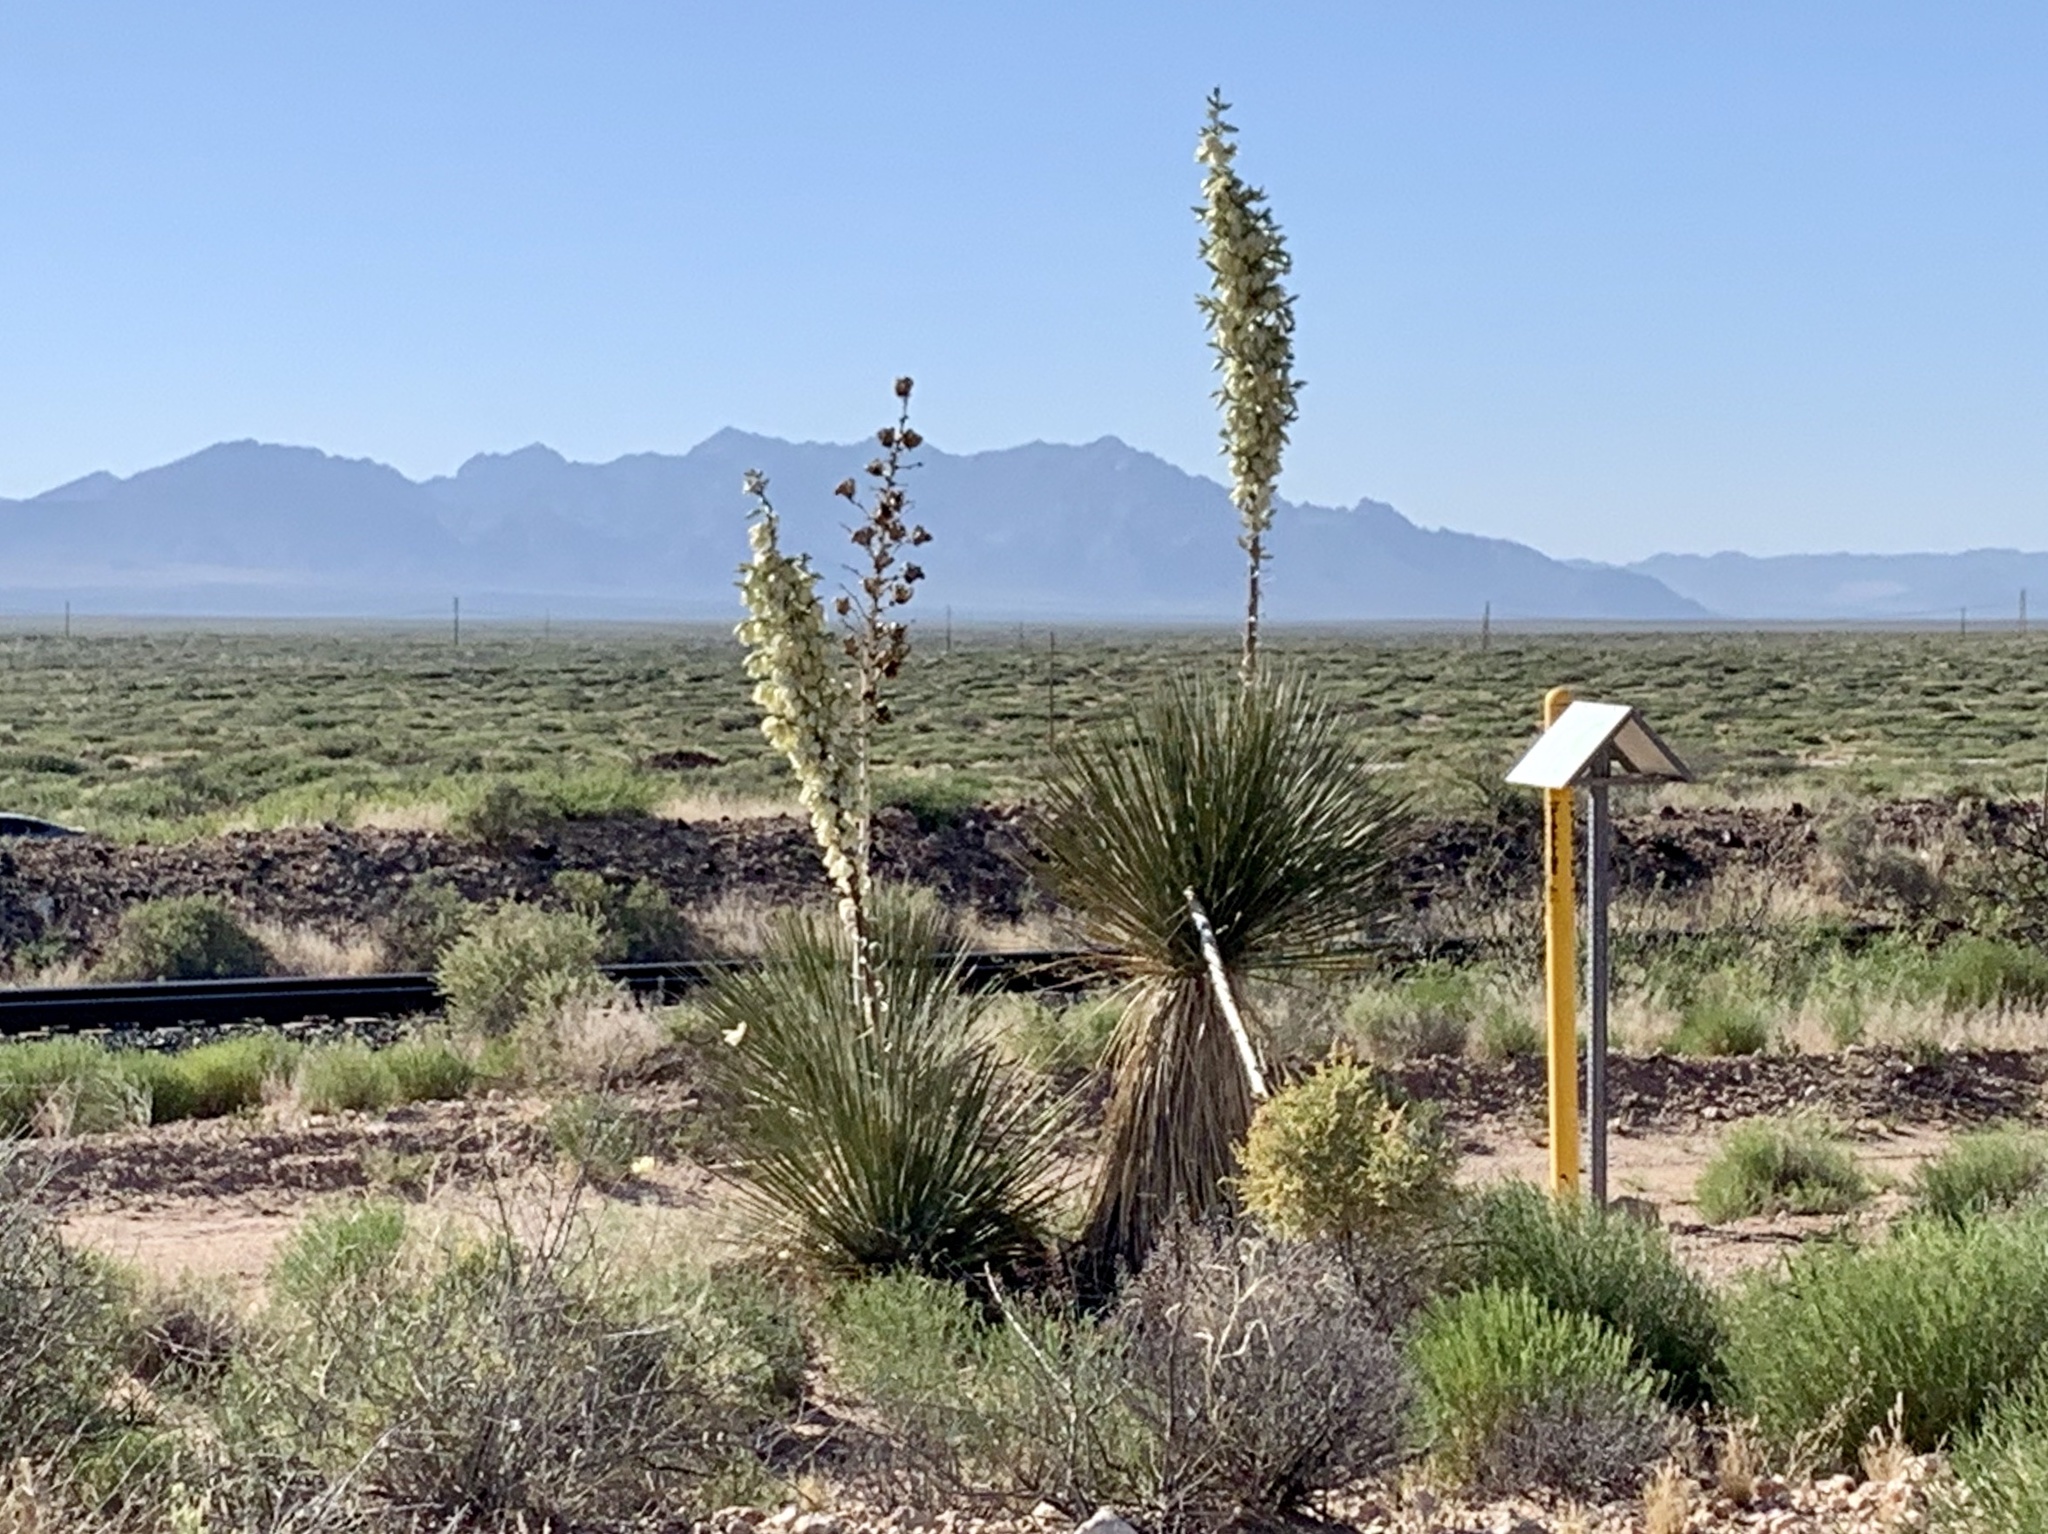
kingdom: Plantae
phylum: Tracheophyta
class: Liliopsida
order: Asparagales
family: Asparagaceae
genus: Yucca
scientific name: Yucca elata
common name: Palmella
